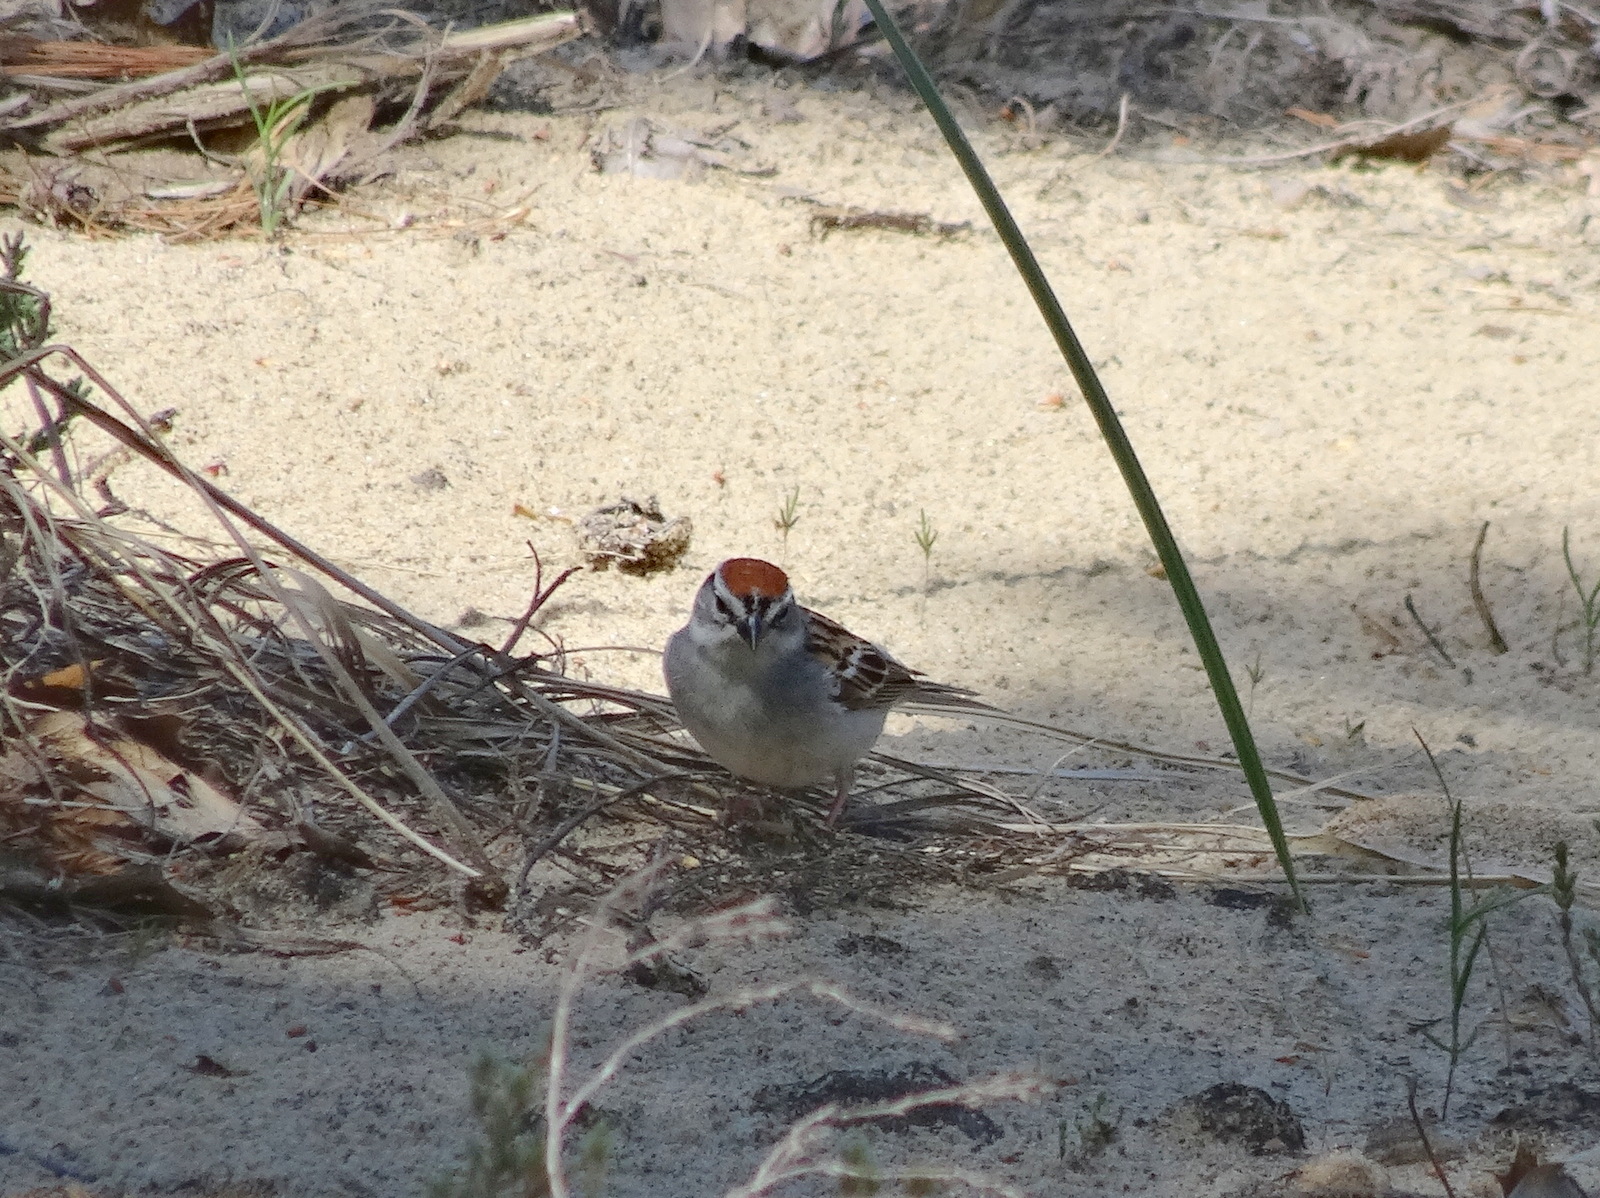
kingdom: Animalia
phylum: Chordata
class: Aves
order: Passeriformes
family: Passerellidae
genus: Spizella
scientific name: Spizella passerina
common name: Chipping sparrow
